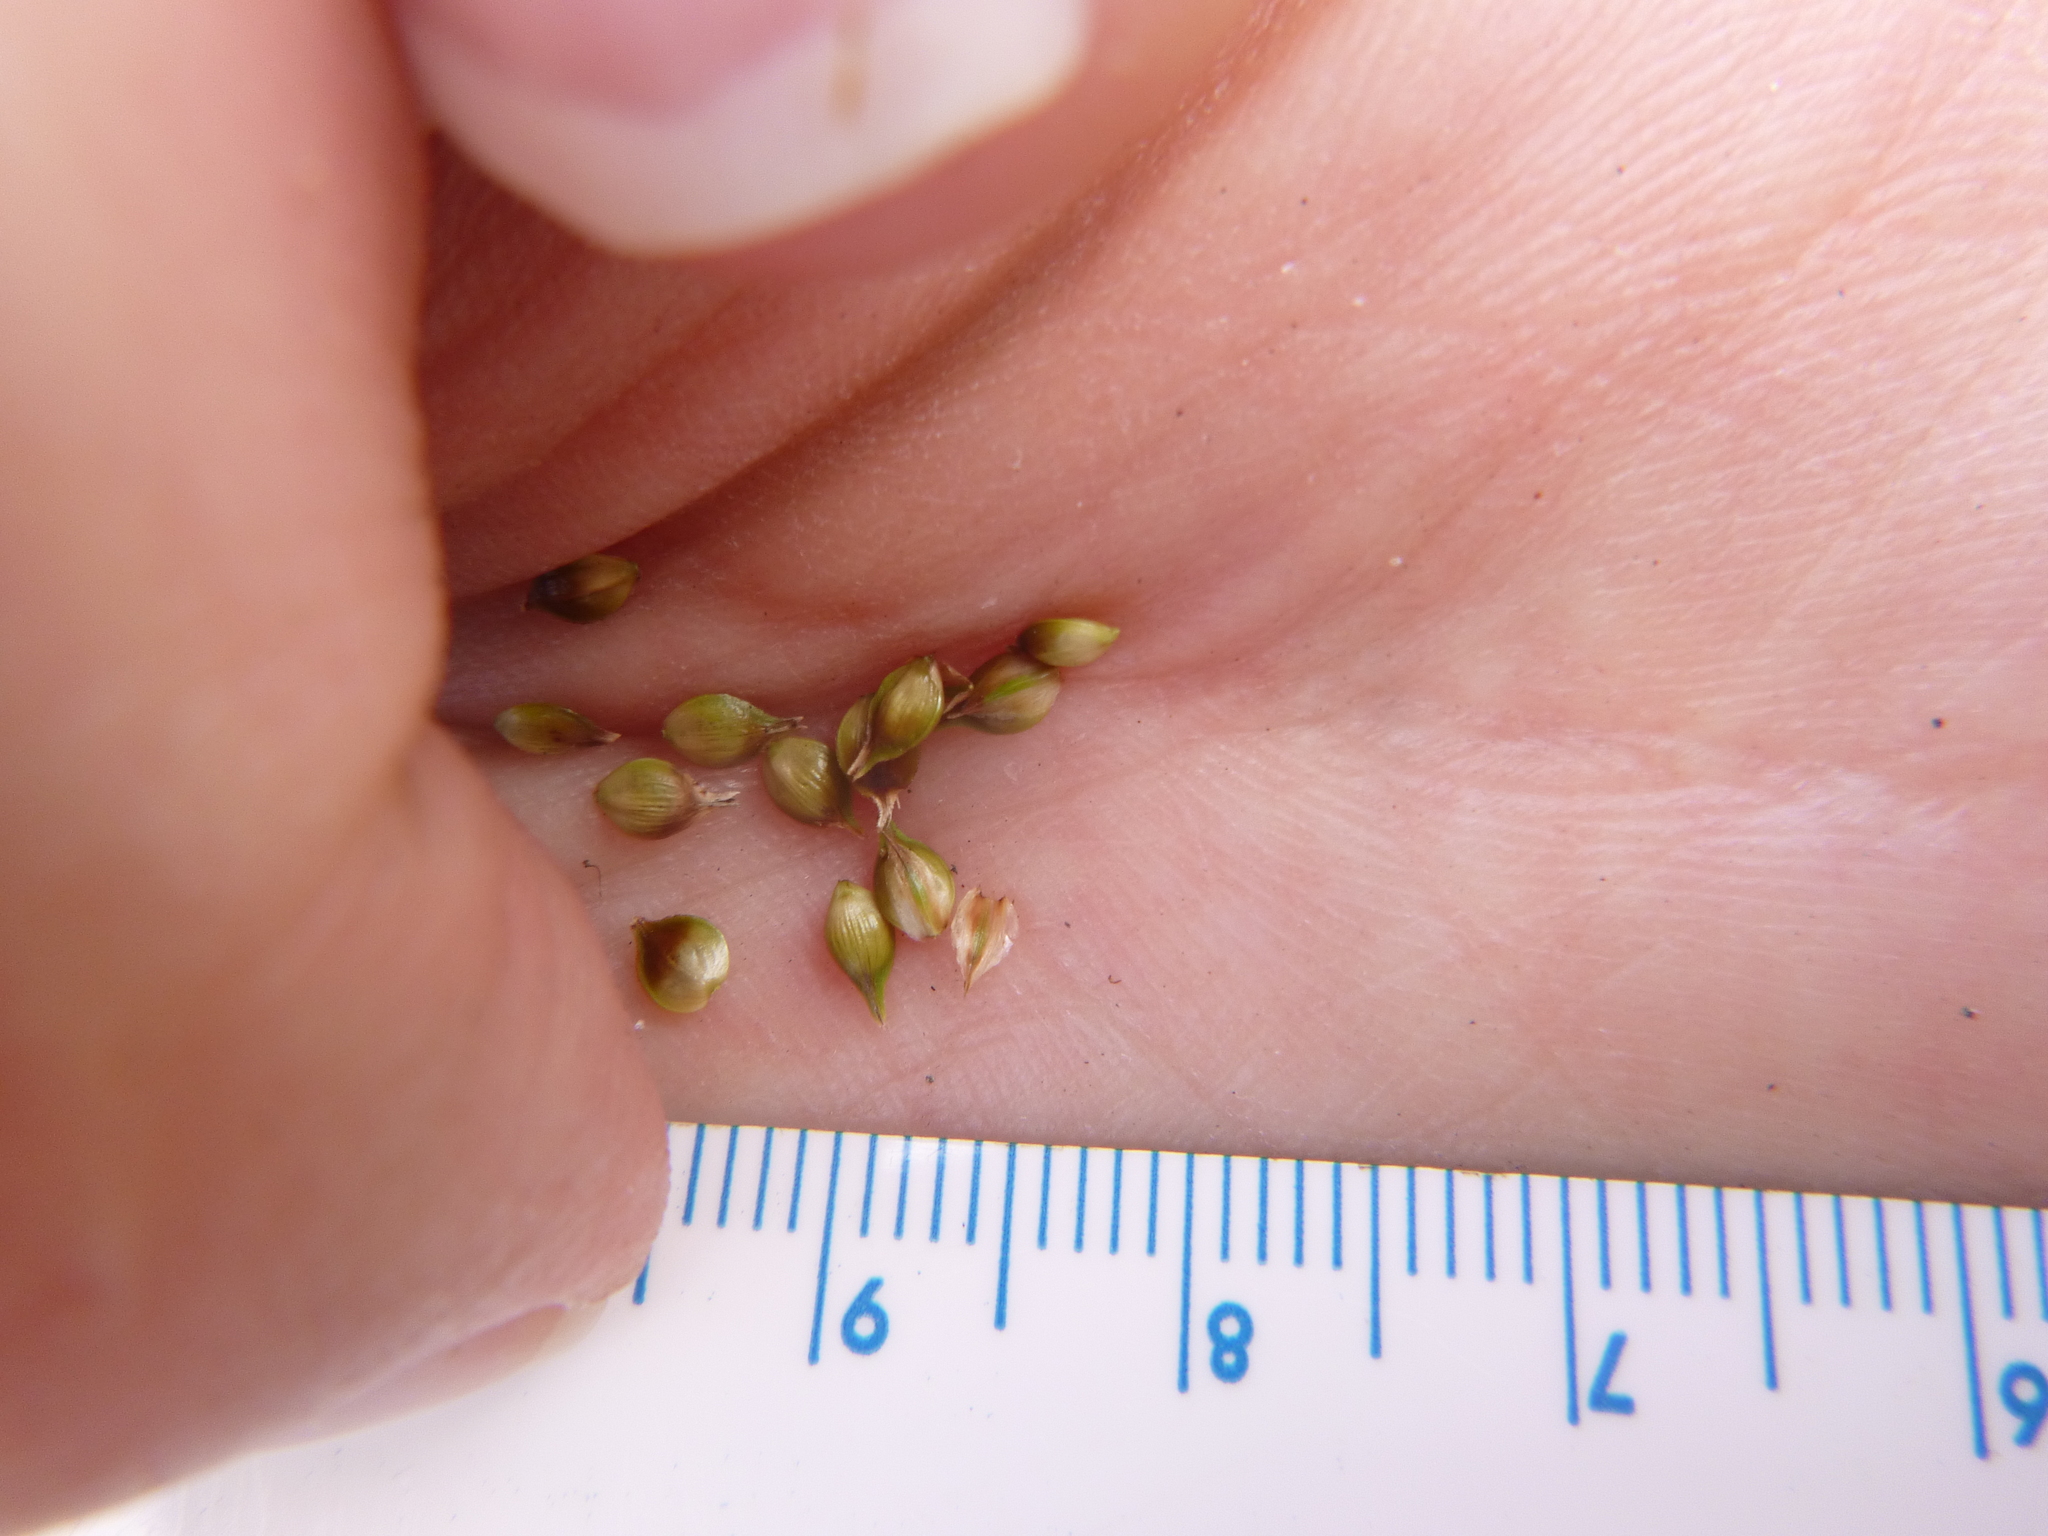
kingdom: Plantae
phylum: Tracheophyta
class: Liliopsida
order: Poales
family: Cyperaceae
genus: Carex
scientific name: Carex muehlenbergii
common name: Muhlenberg's bracted sedge
